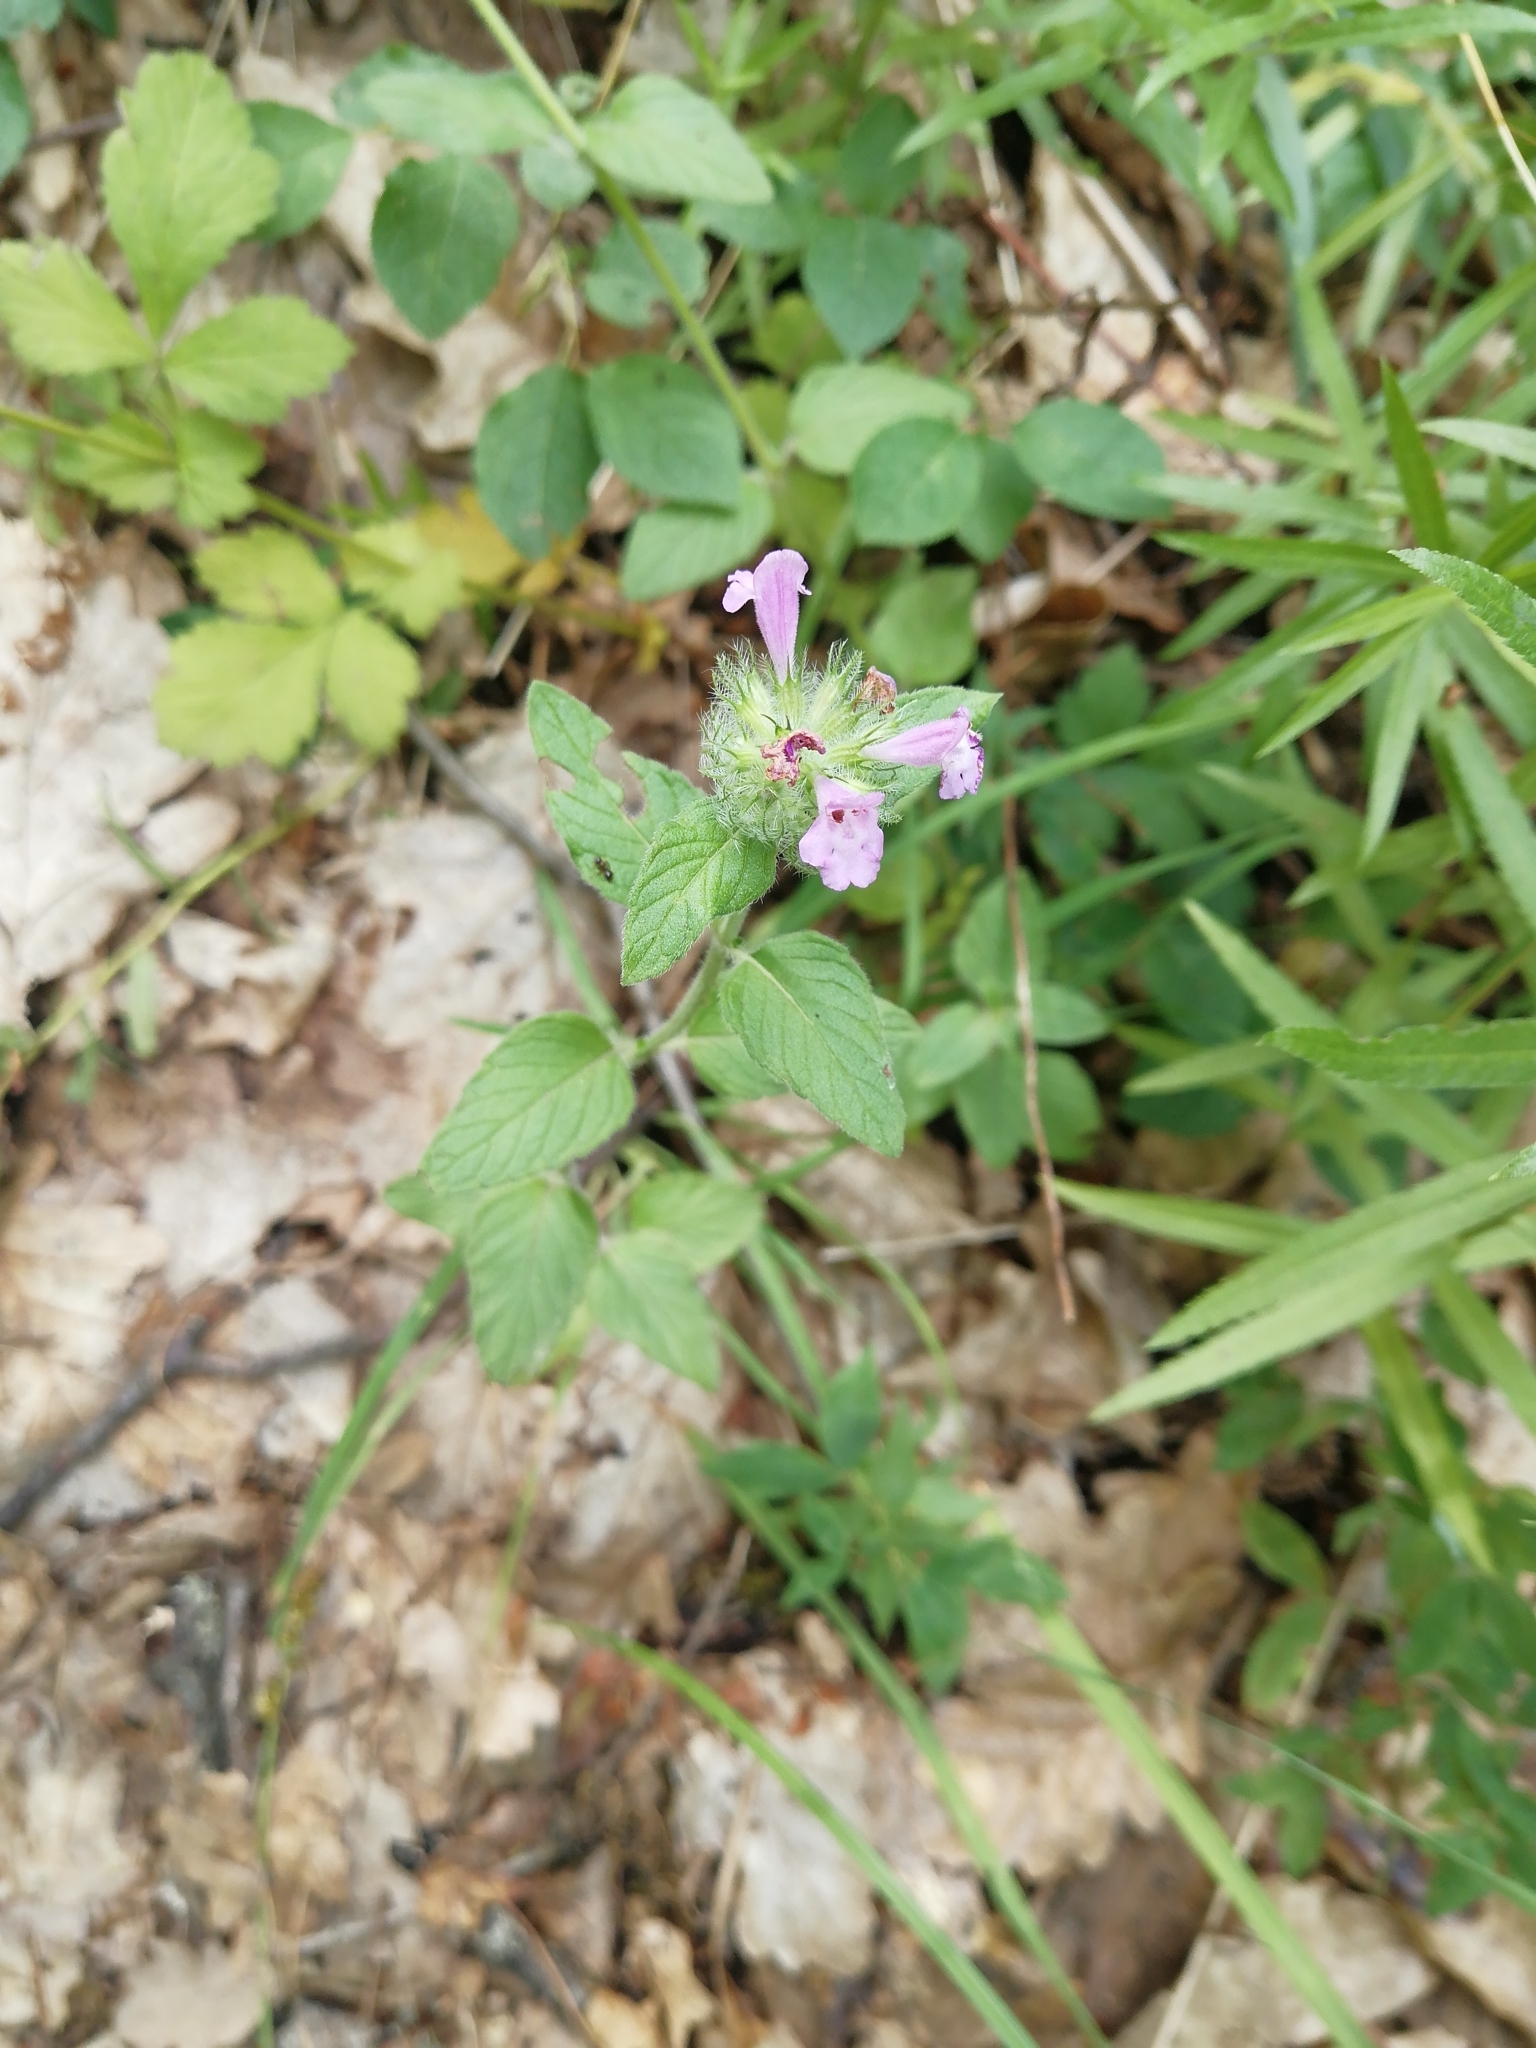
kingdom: Plantae
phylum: Tracheophyta
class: Magnoliopsida
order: Lamiales
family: Lamiaceae
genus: Clinopodium
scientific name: Clinopodium caucasicum
